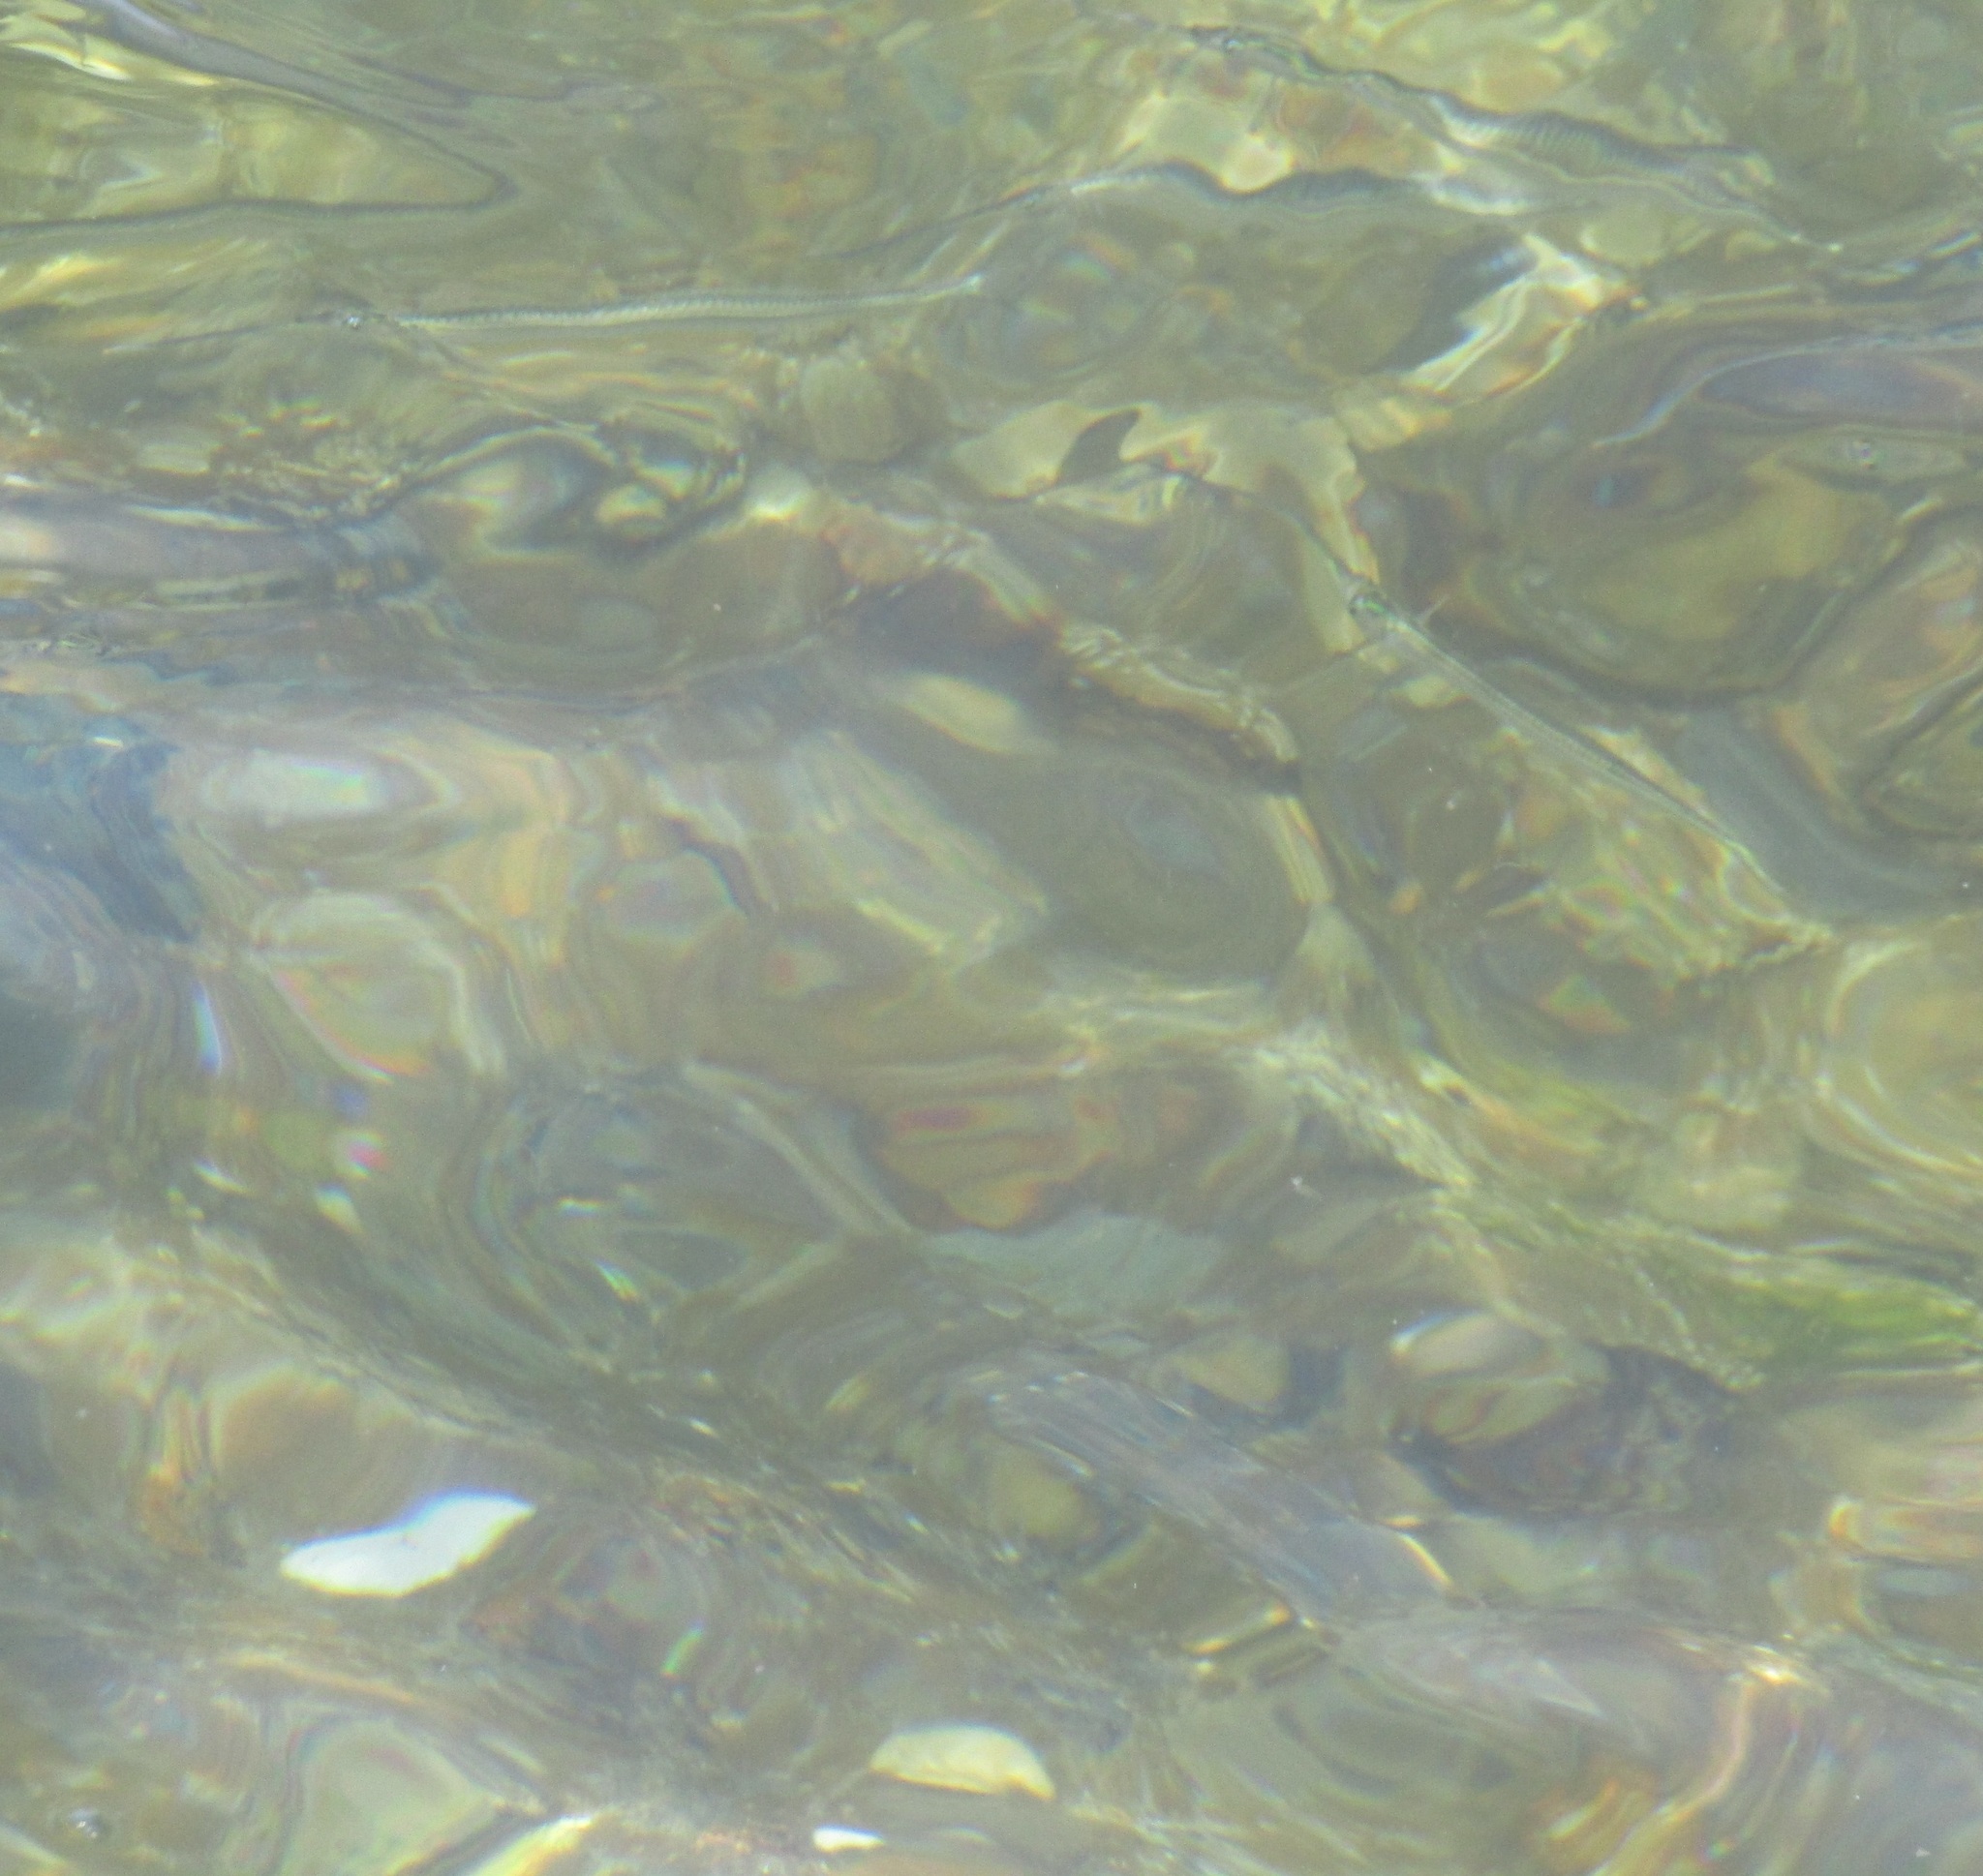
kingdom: Animalia
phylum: Chordata
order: Beloniformes
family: Hemiramphidae
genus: Hyporhamphus
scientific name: Hyporhamphus ihi
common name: Garfish
